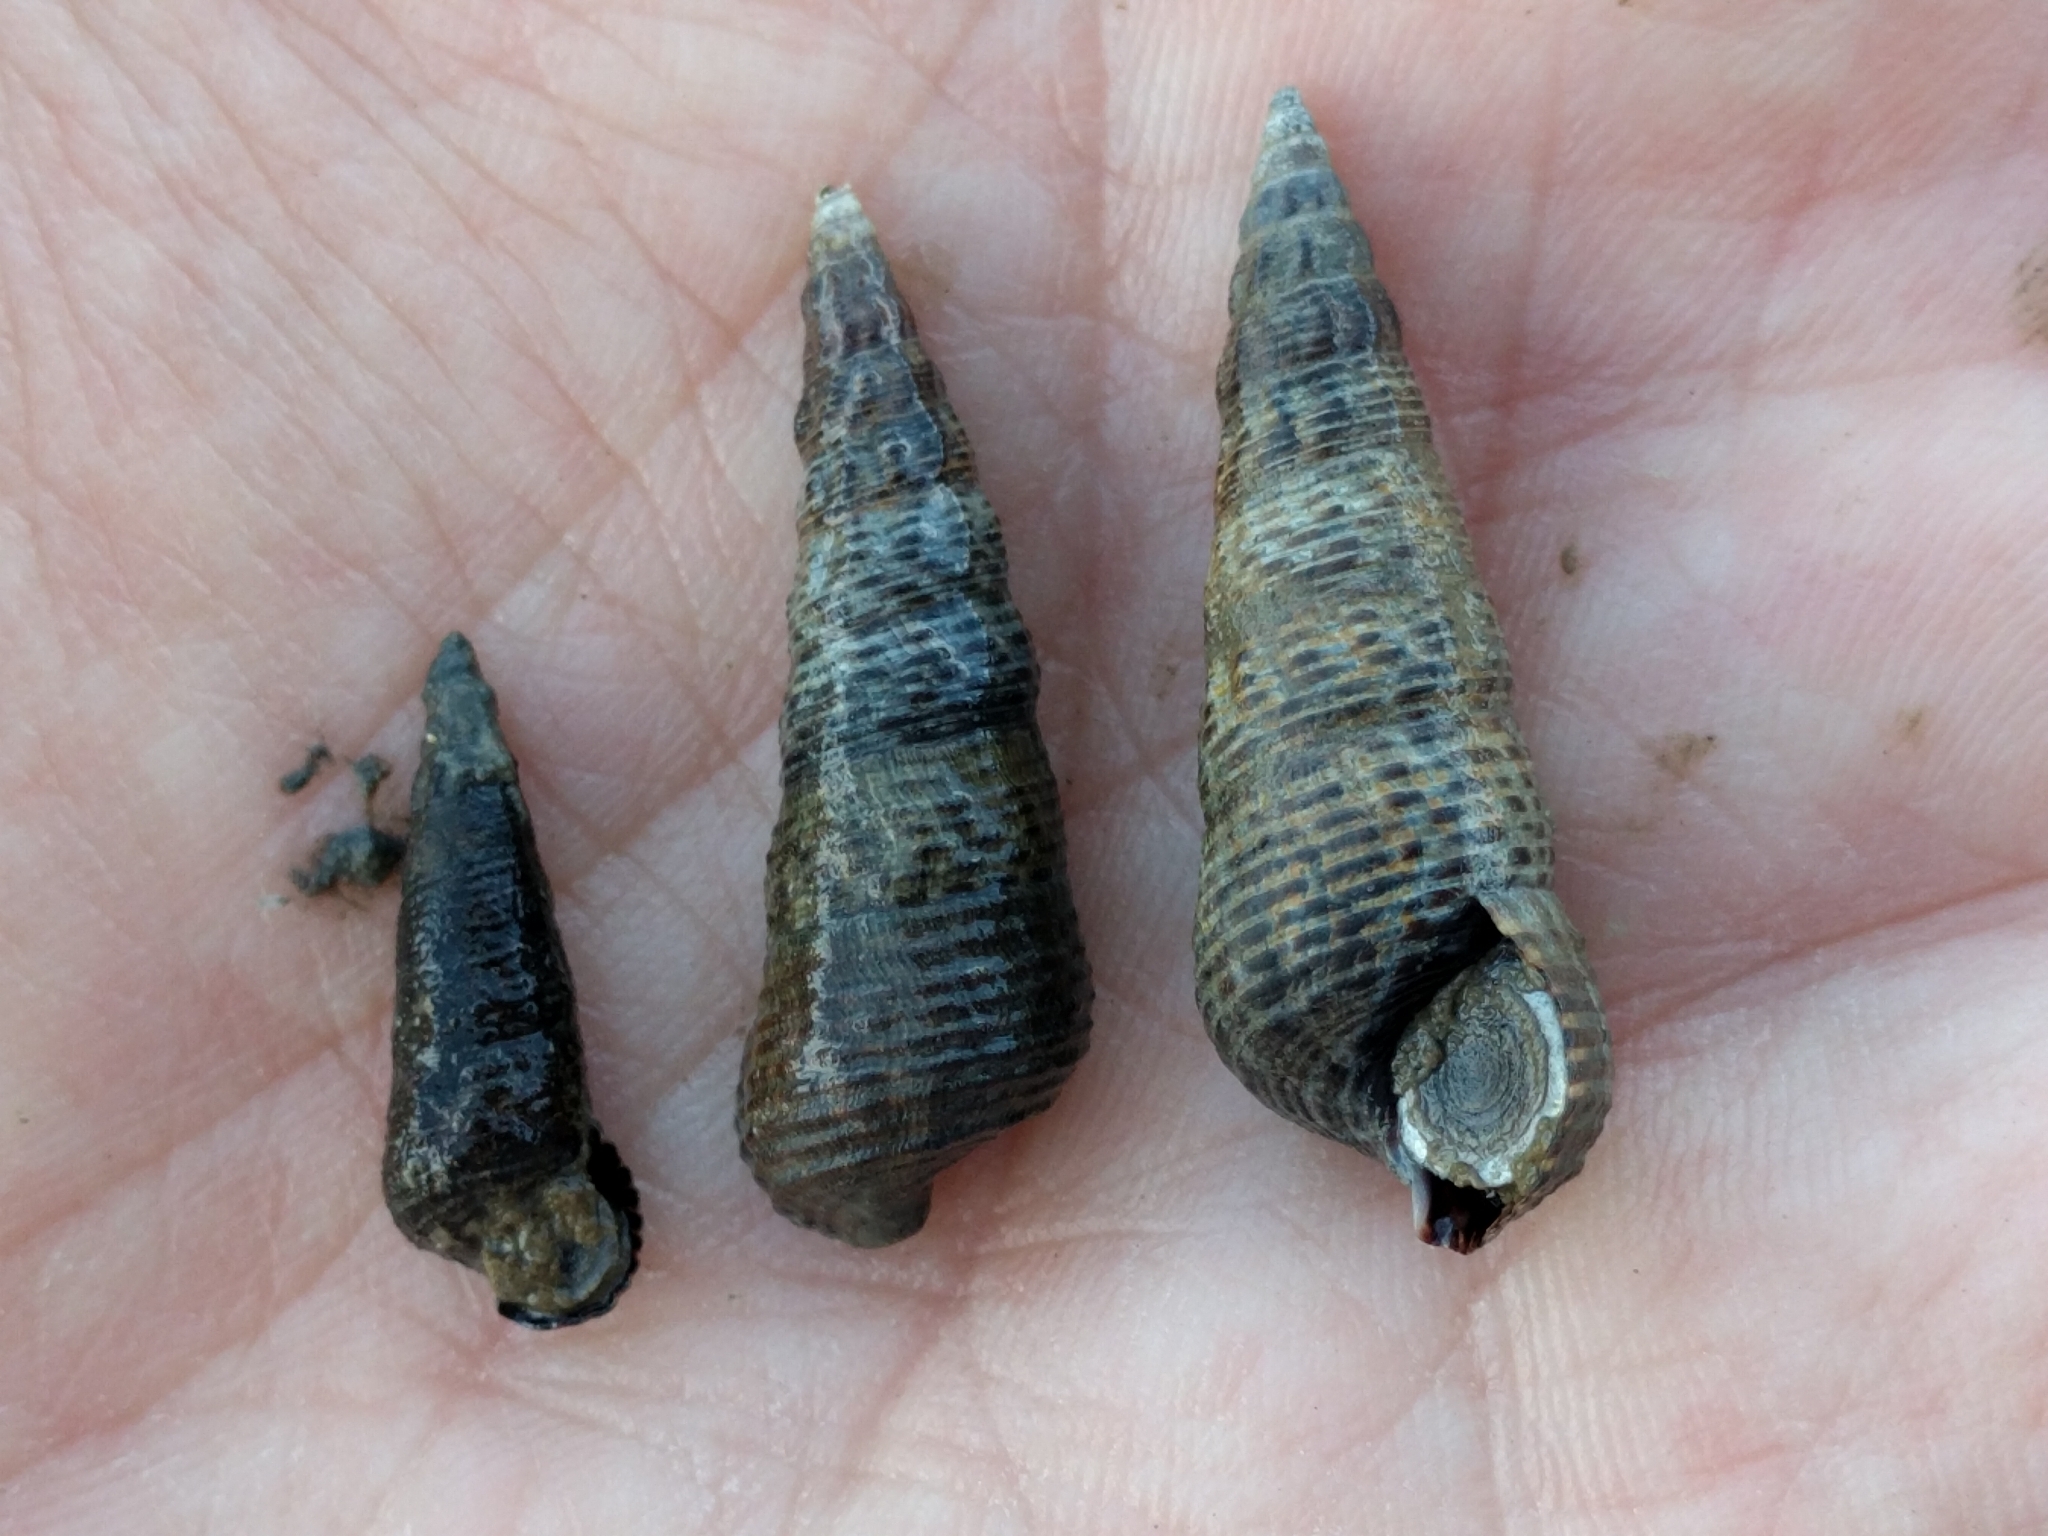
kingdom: Animalia
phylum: Mollusca
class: Gastropoda
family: Batillariidae
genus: Batillaria
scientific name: Batillaria attramentaria
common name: Japanese false cerith
